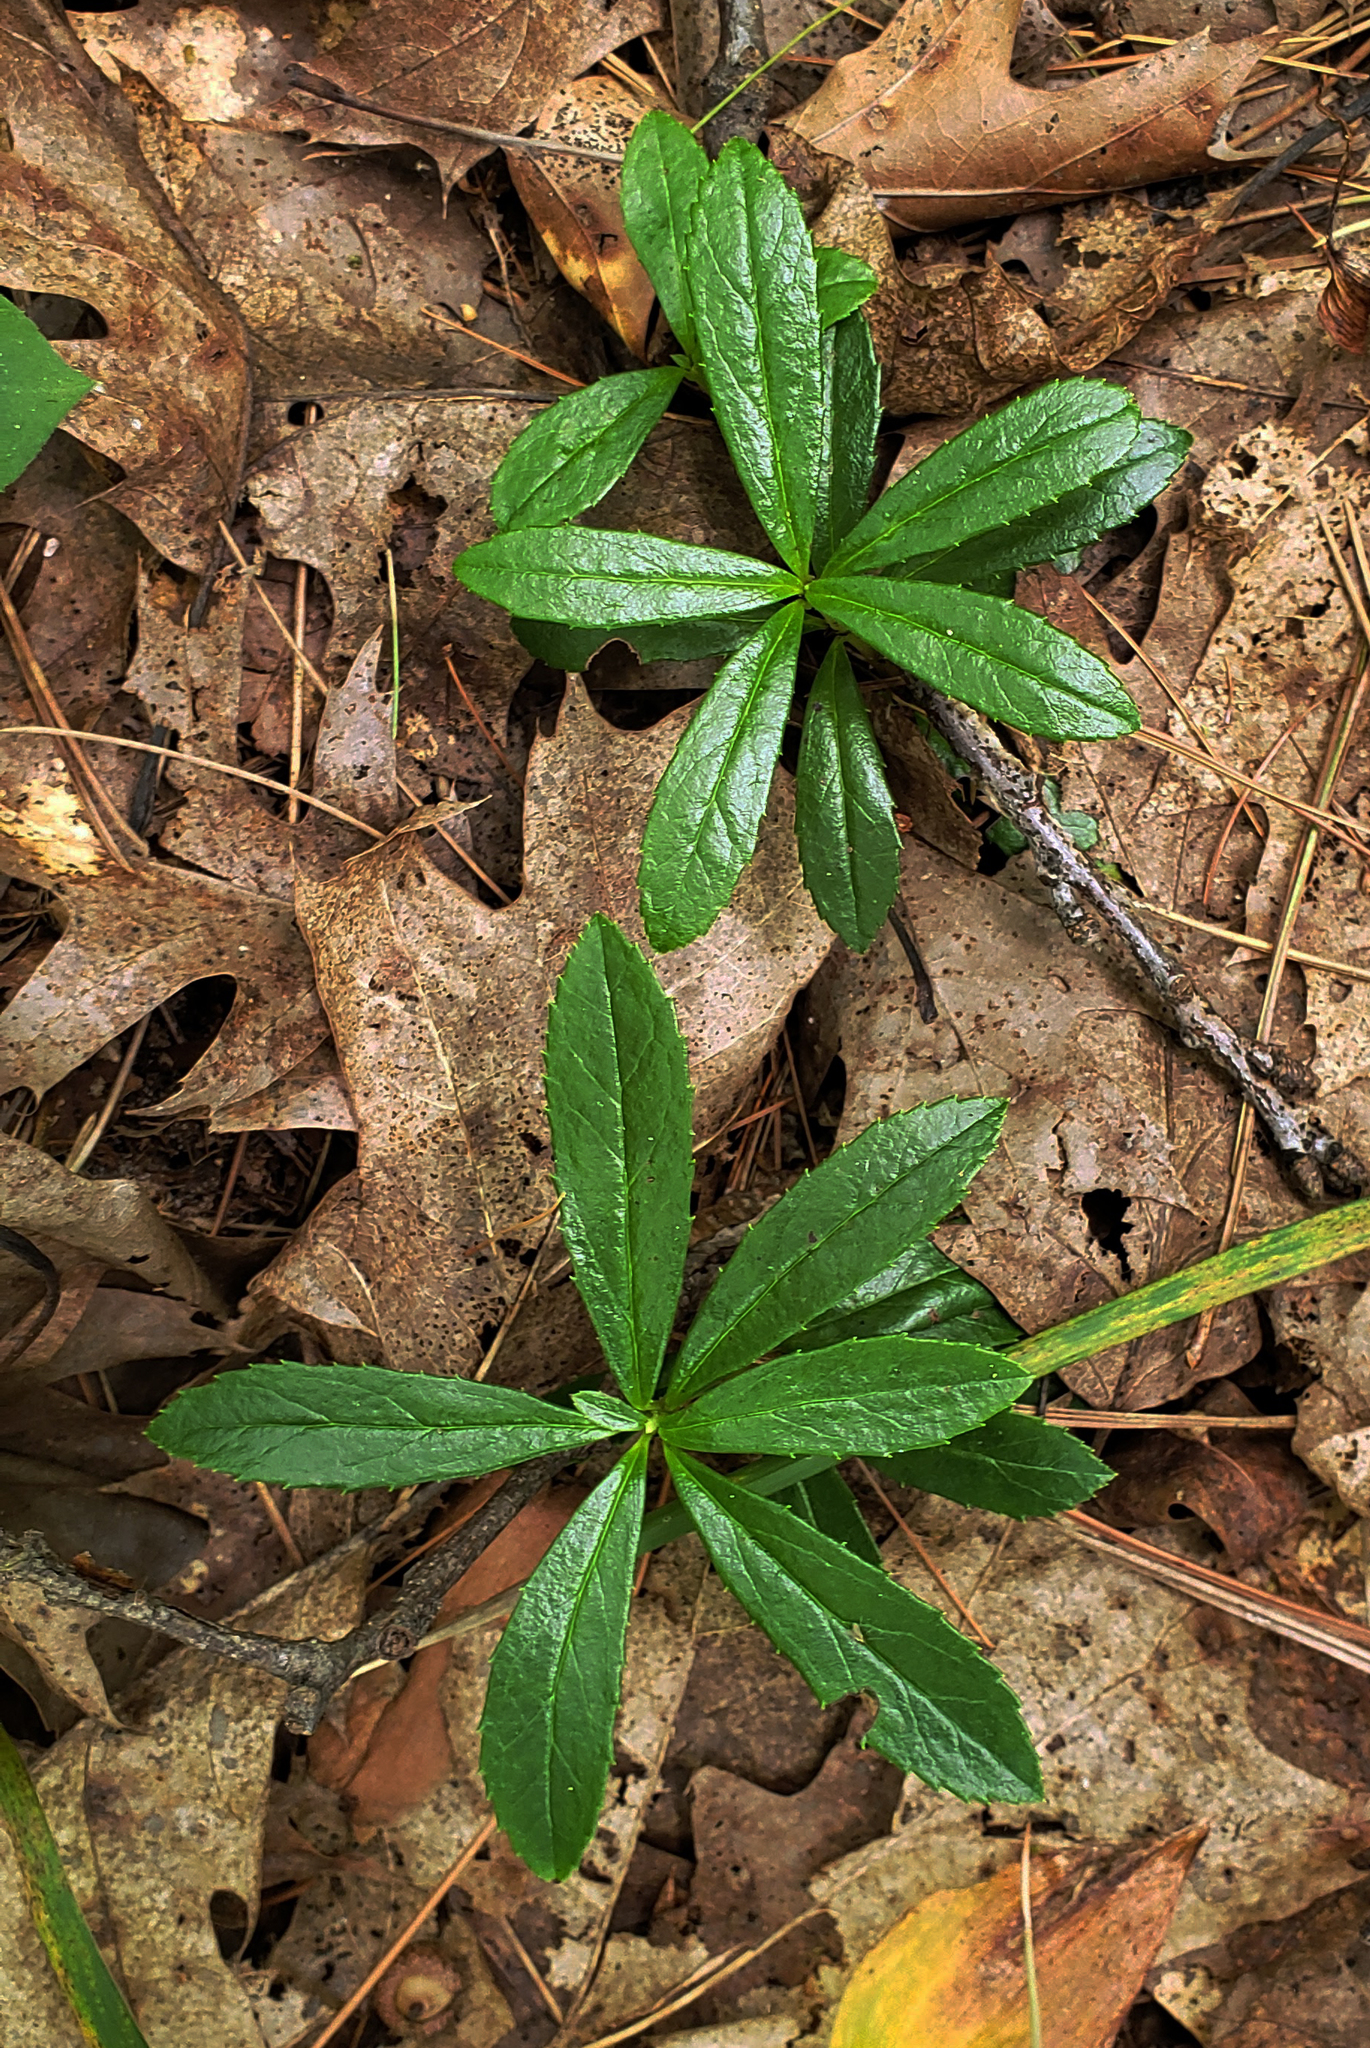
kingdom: Plantae
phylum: Tracheophyta
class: Magnoliopsida
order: Ericales
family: Ericaceae
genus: Chimaphila
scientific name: Chimaphila umbellata
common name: Pipsissewa
